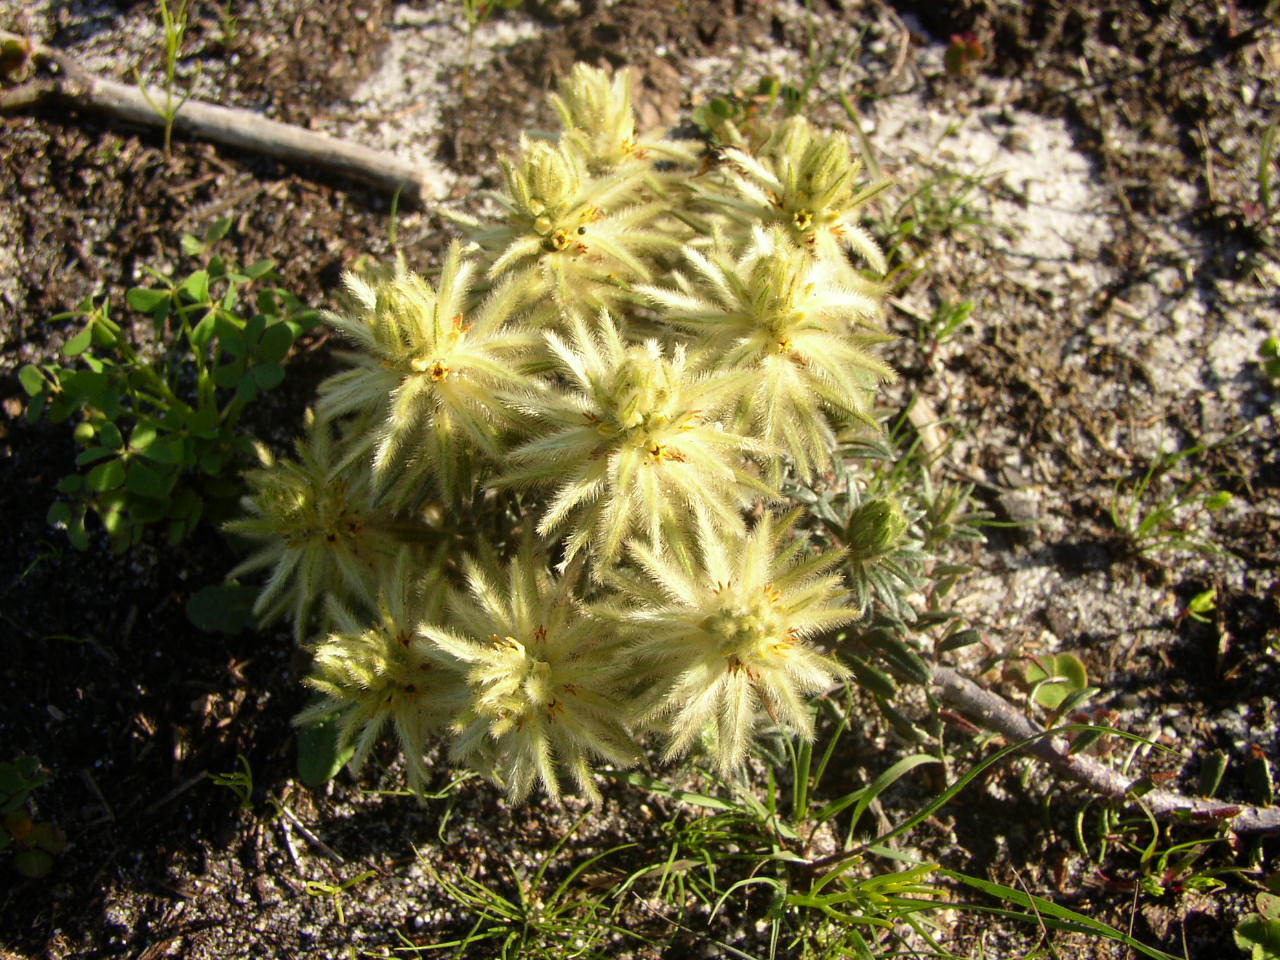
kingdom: Plantae
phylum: Tracheophyta
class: Magnoliopsida
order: Rosales
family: Rhamnaceae
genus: Phylica
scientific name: Phylica pubescens
